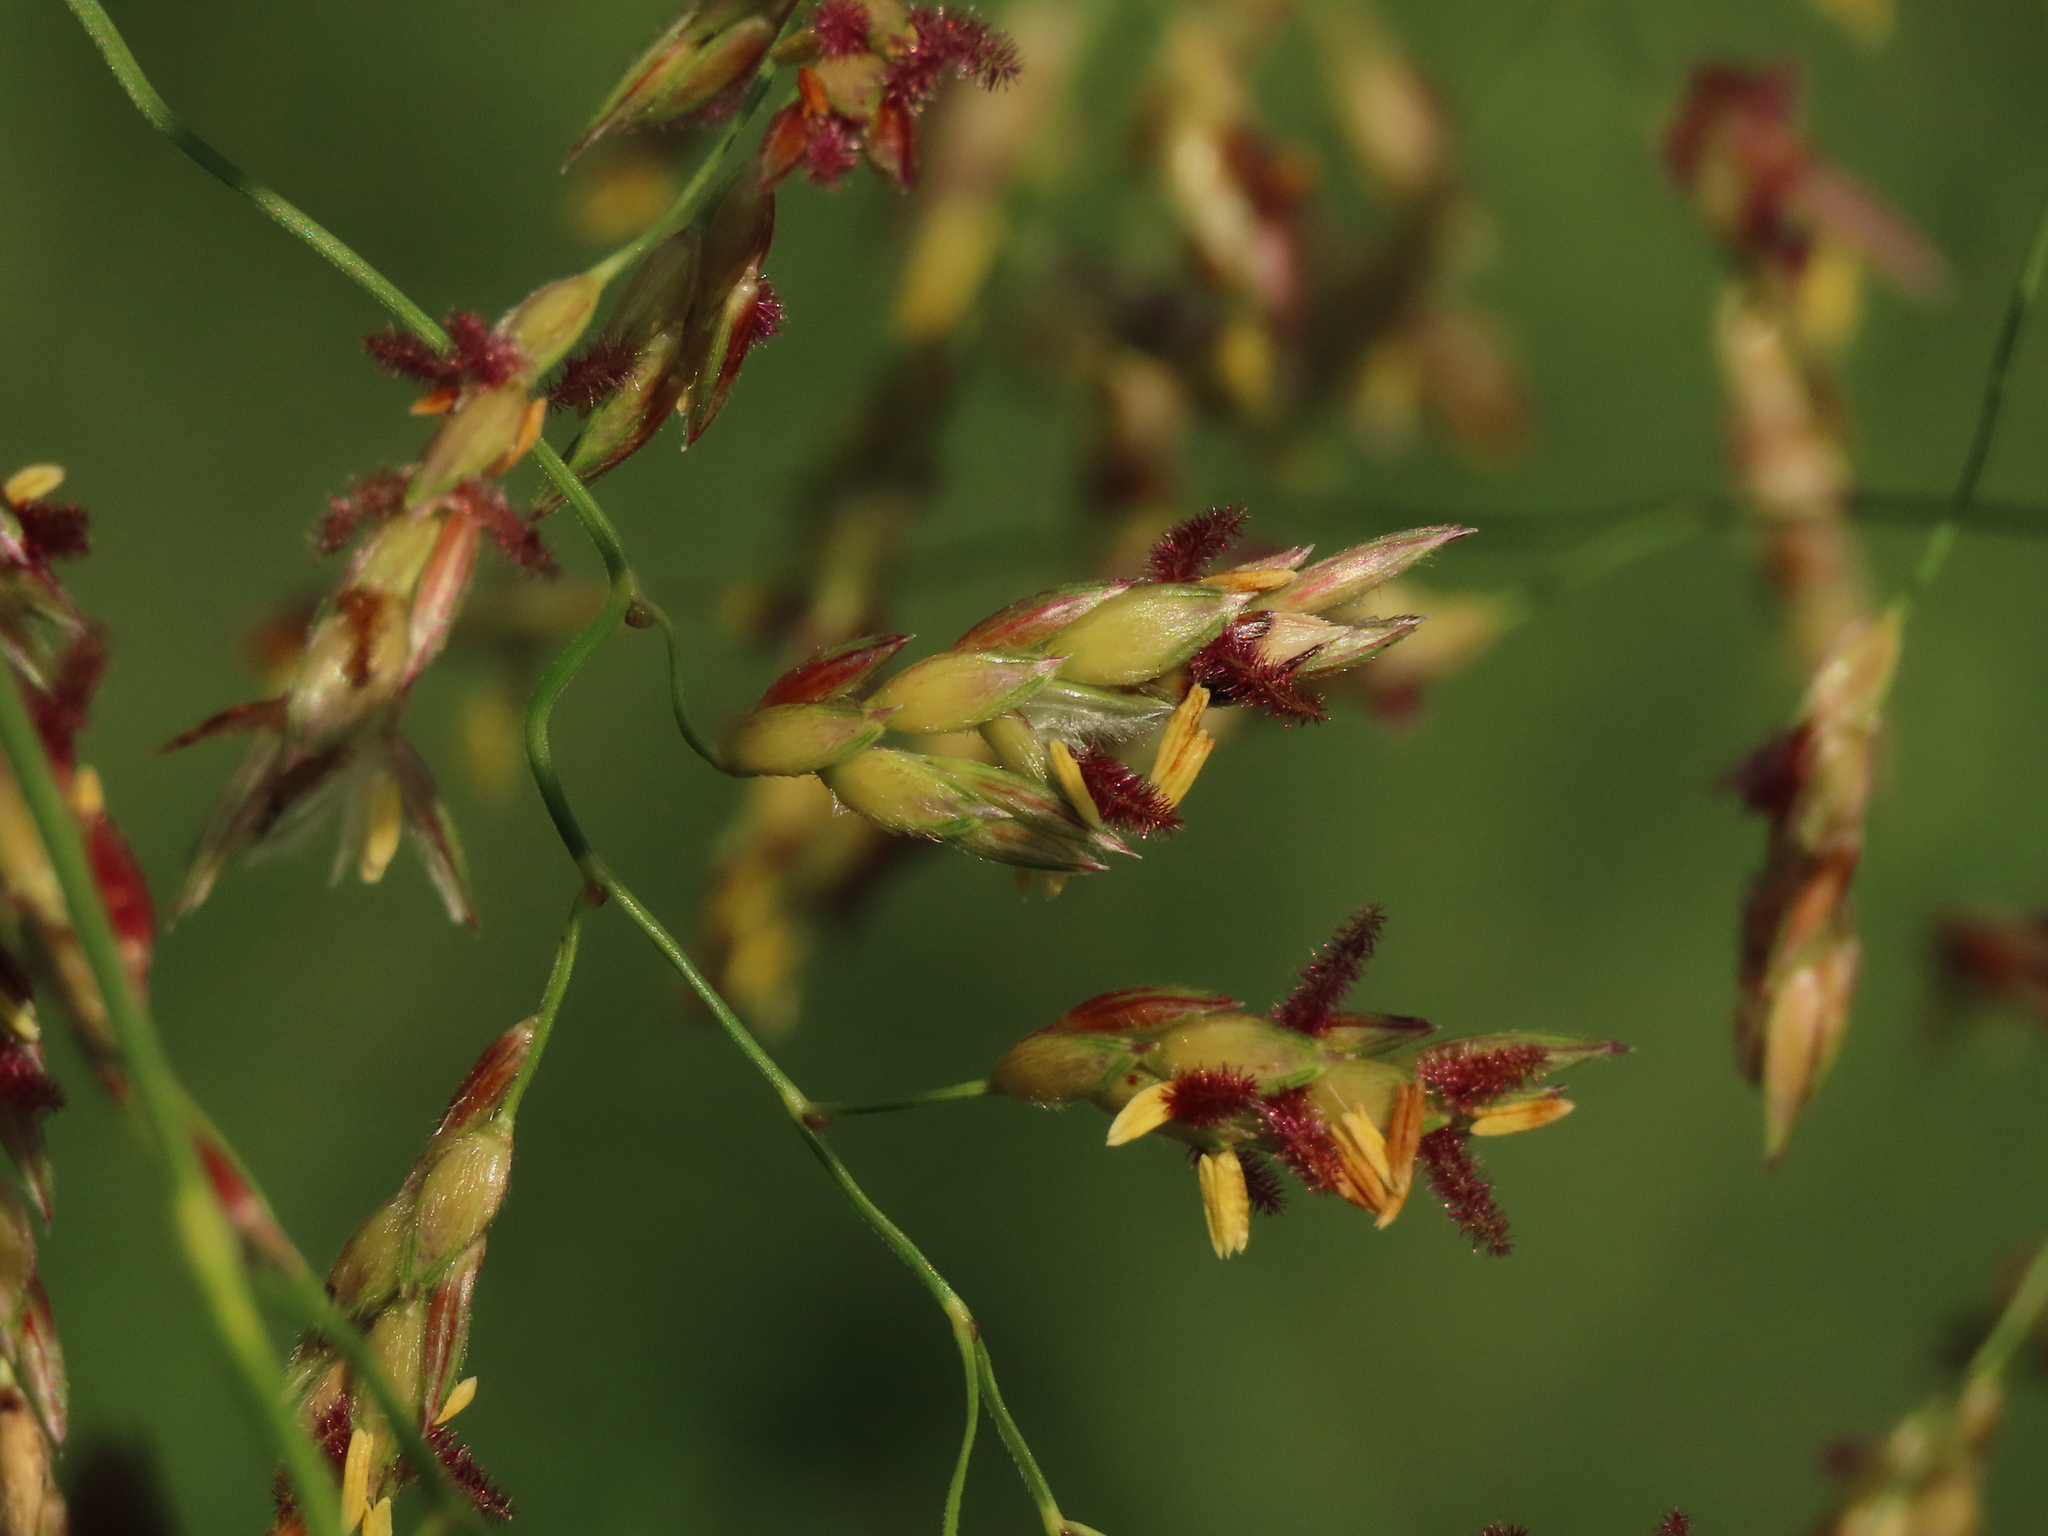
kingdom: Plantae
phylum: Tracheophyta
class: Liliopsida
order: Poales
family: Poaceae
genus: Sorghum
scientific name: Sorghum propinquum
